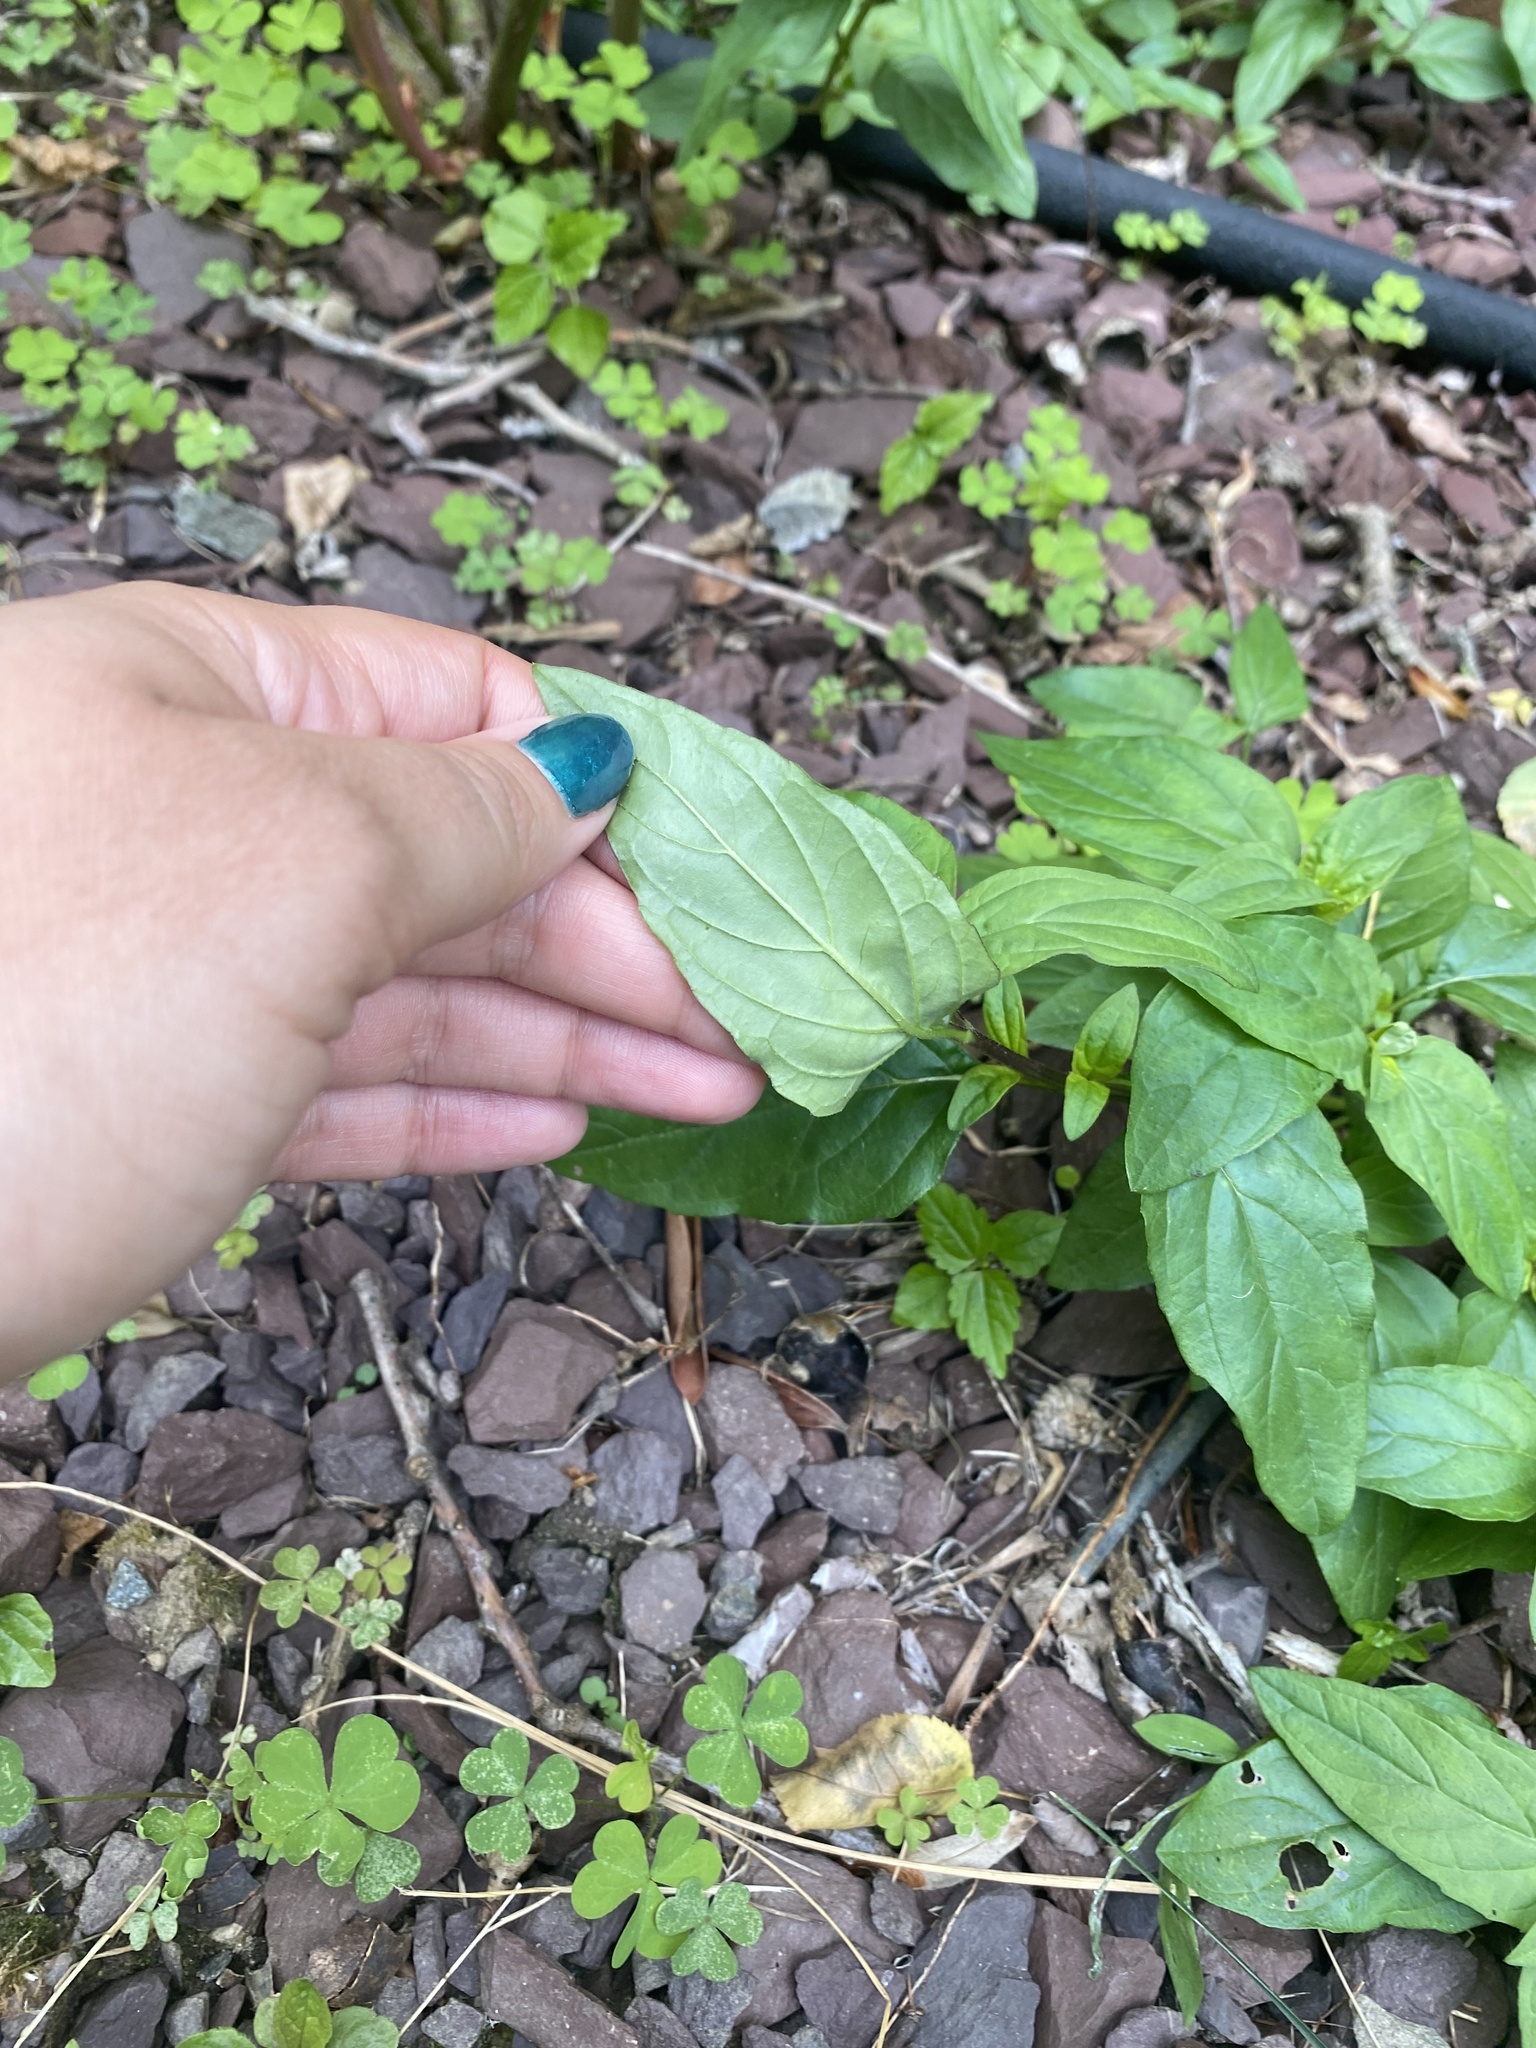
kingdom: Plantae
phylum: Tracheophyta
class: Magnoliopsida
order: Lamiales
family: Lamiaceae
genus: Prunella
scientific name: Prunella vulgaris
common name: Heal-all
